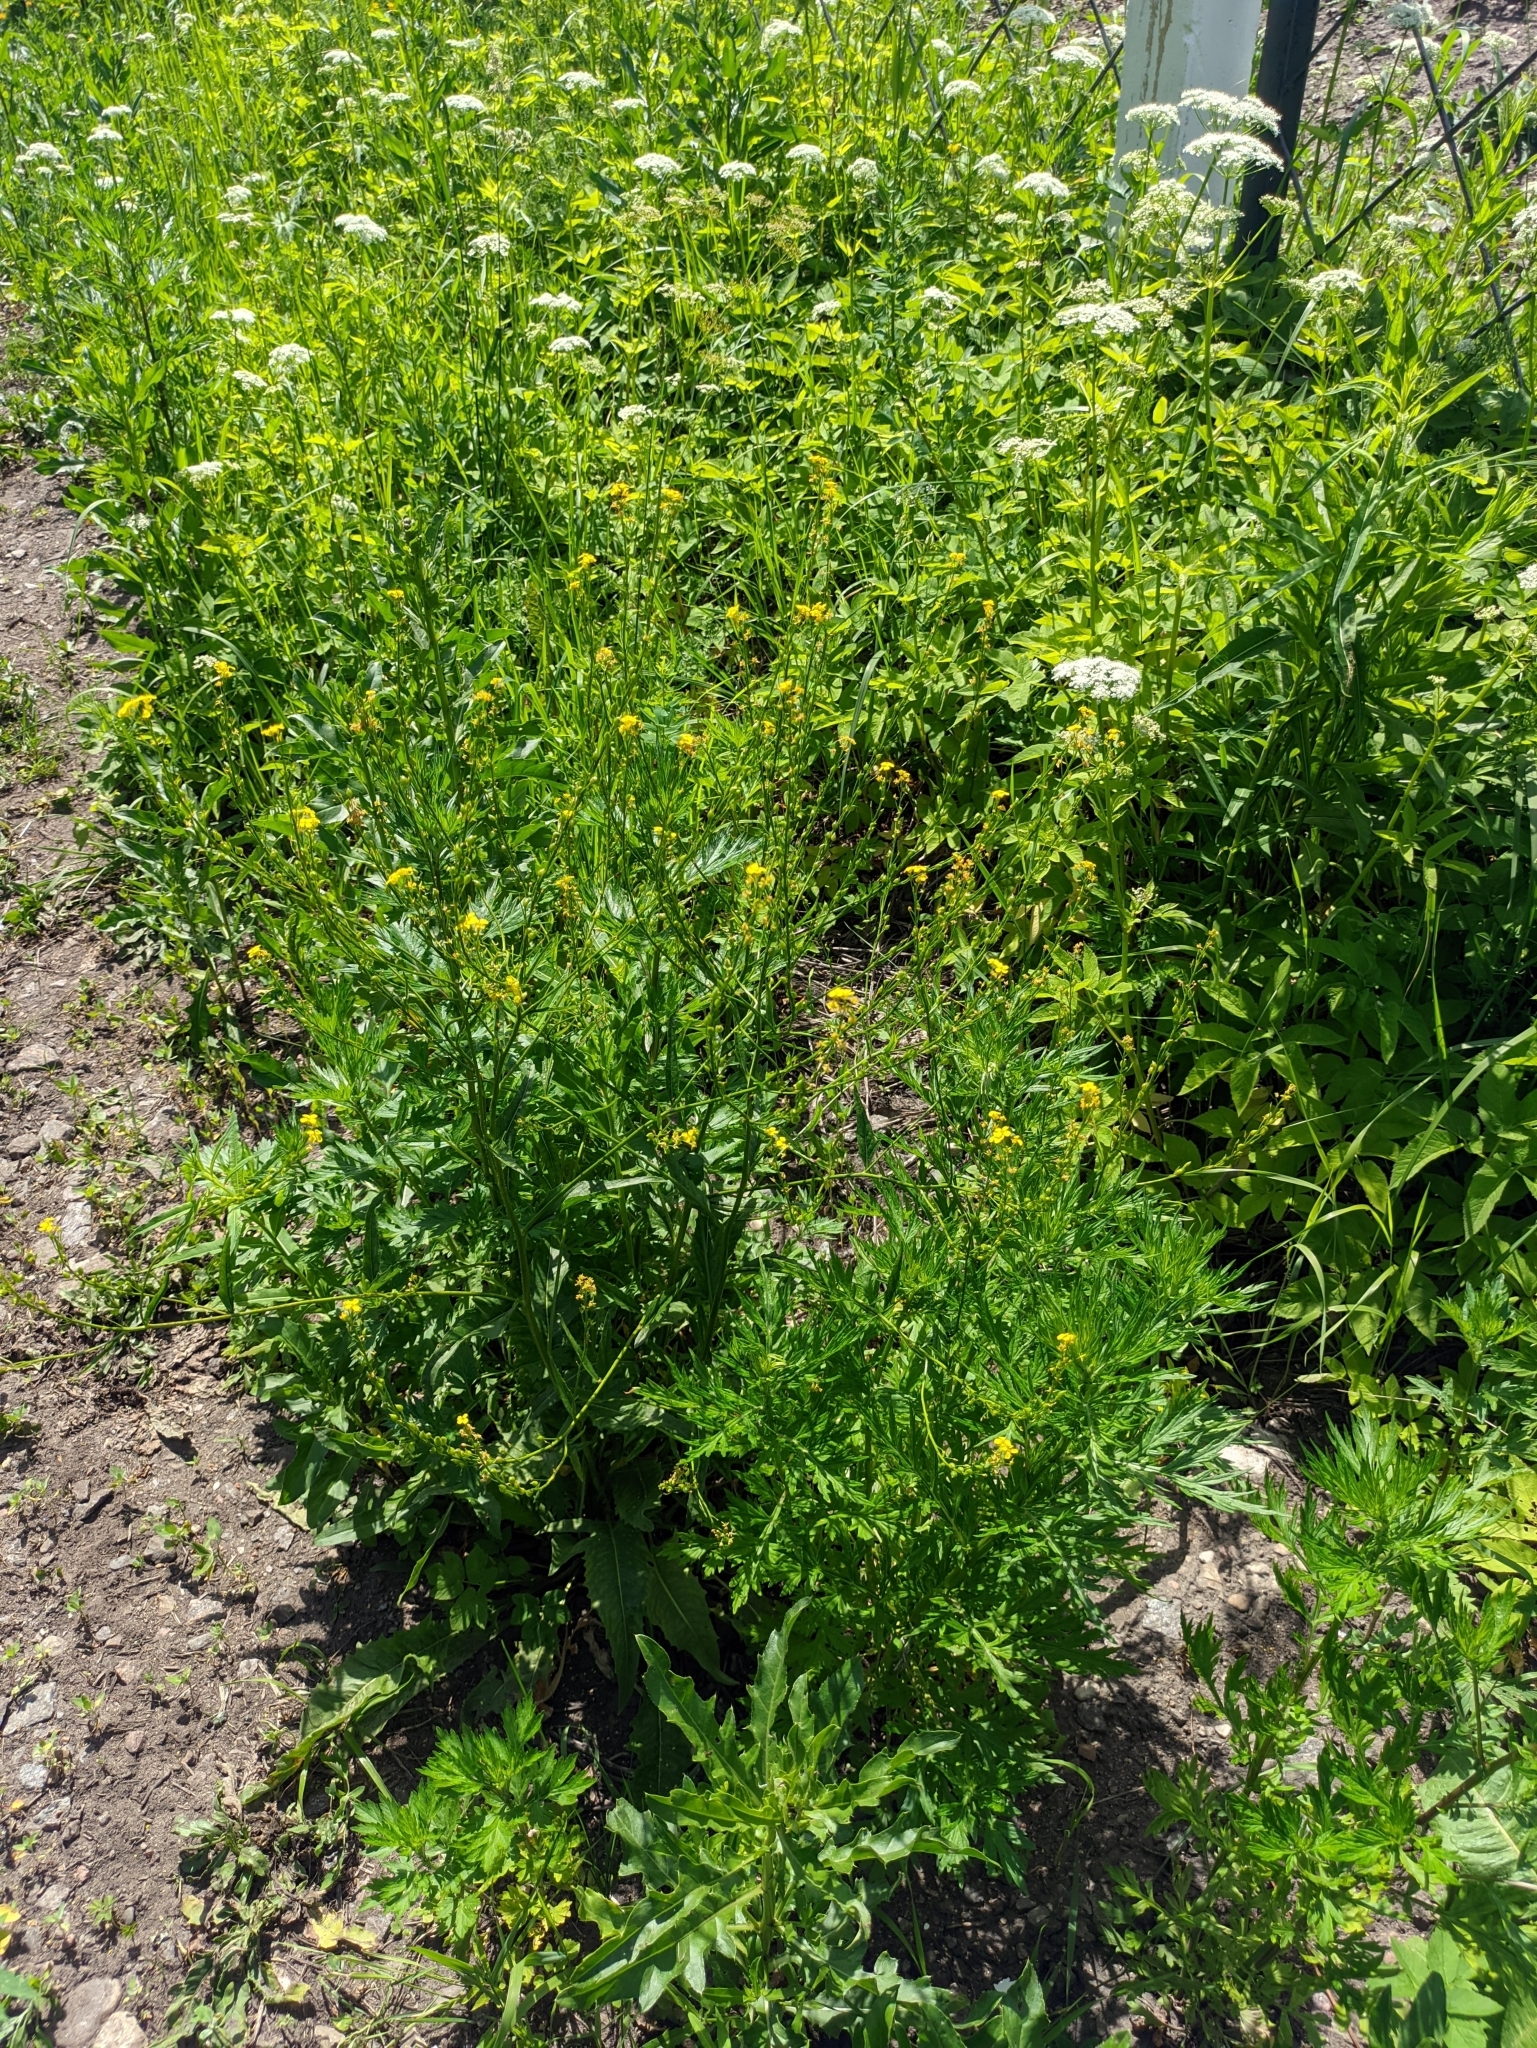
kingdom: Plantae
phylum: Tracheophyta
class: Magnoliopsida
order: Brassicales
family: Brassicaceae
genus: Bunias
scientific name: Bunias orientalis
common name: Warty-cabbage
